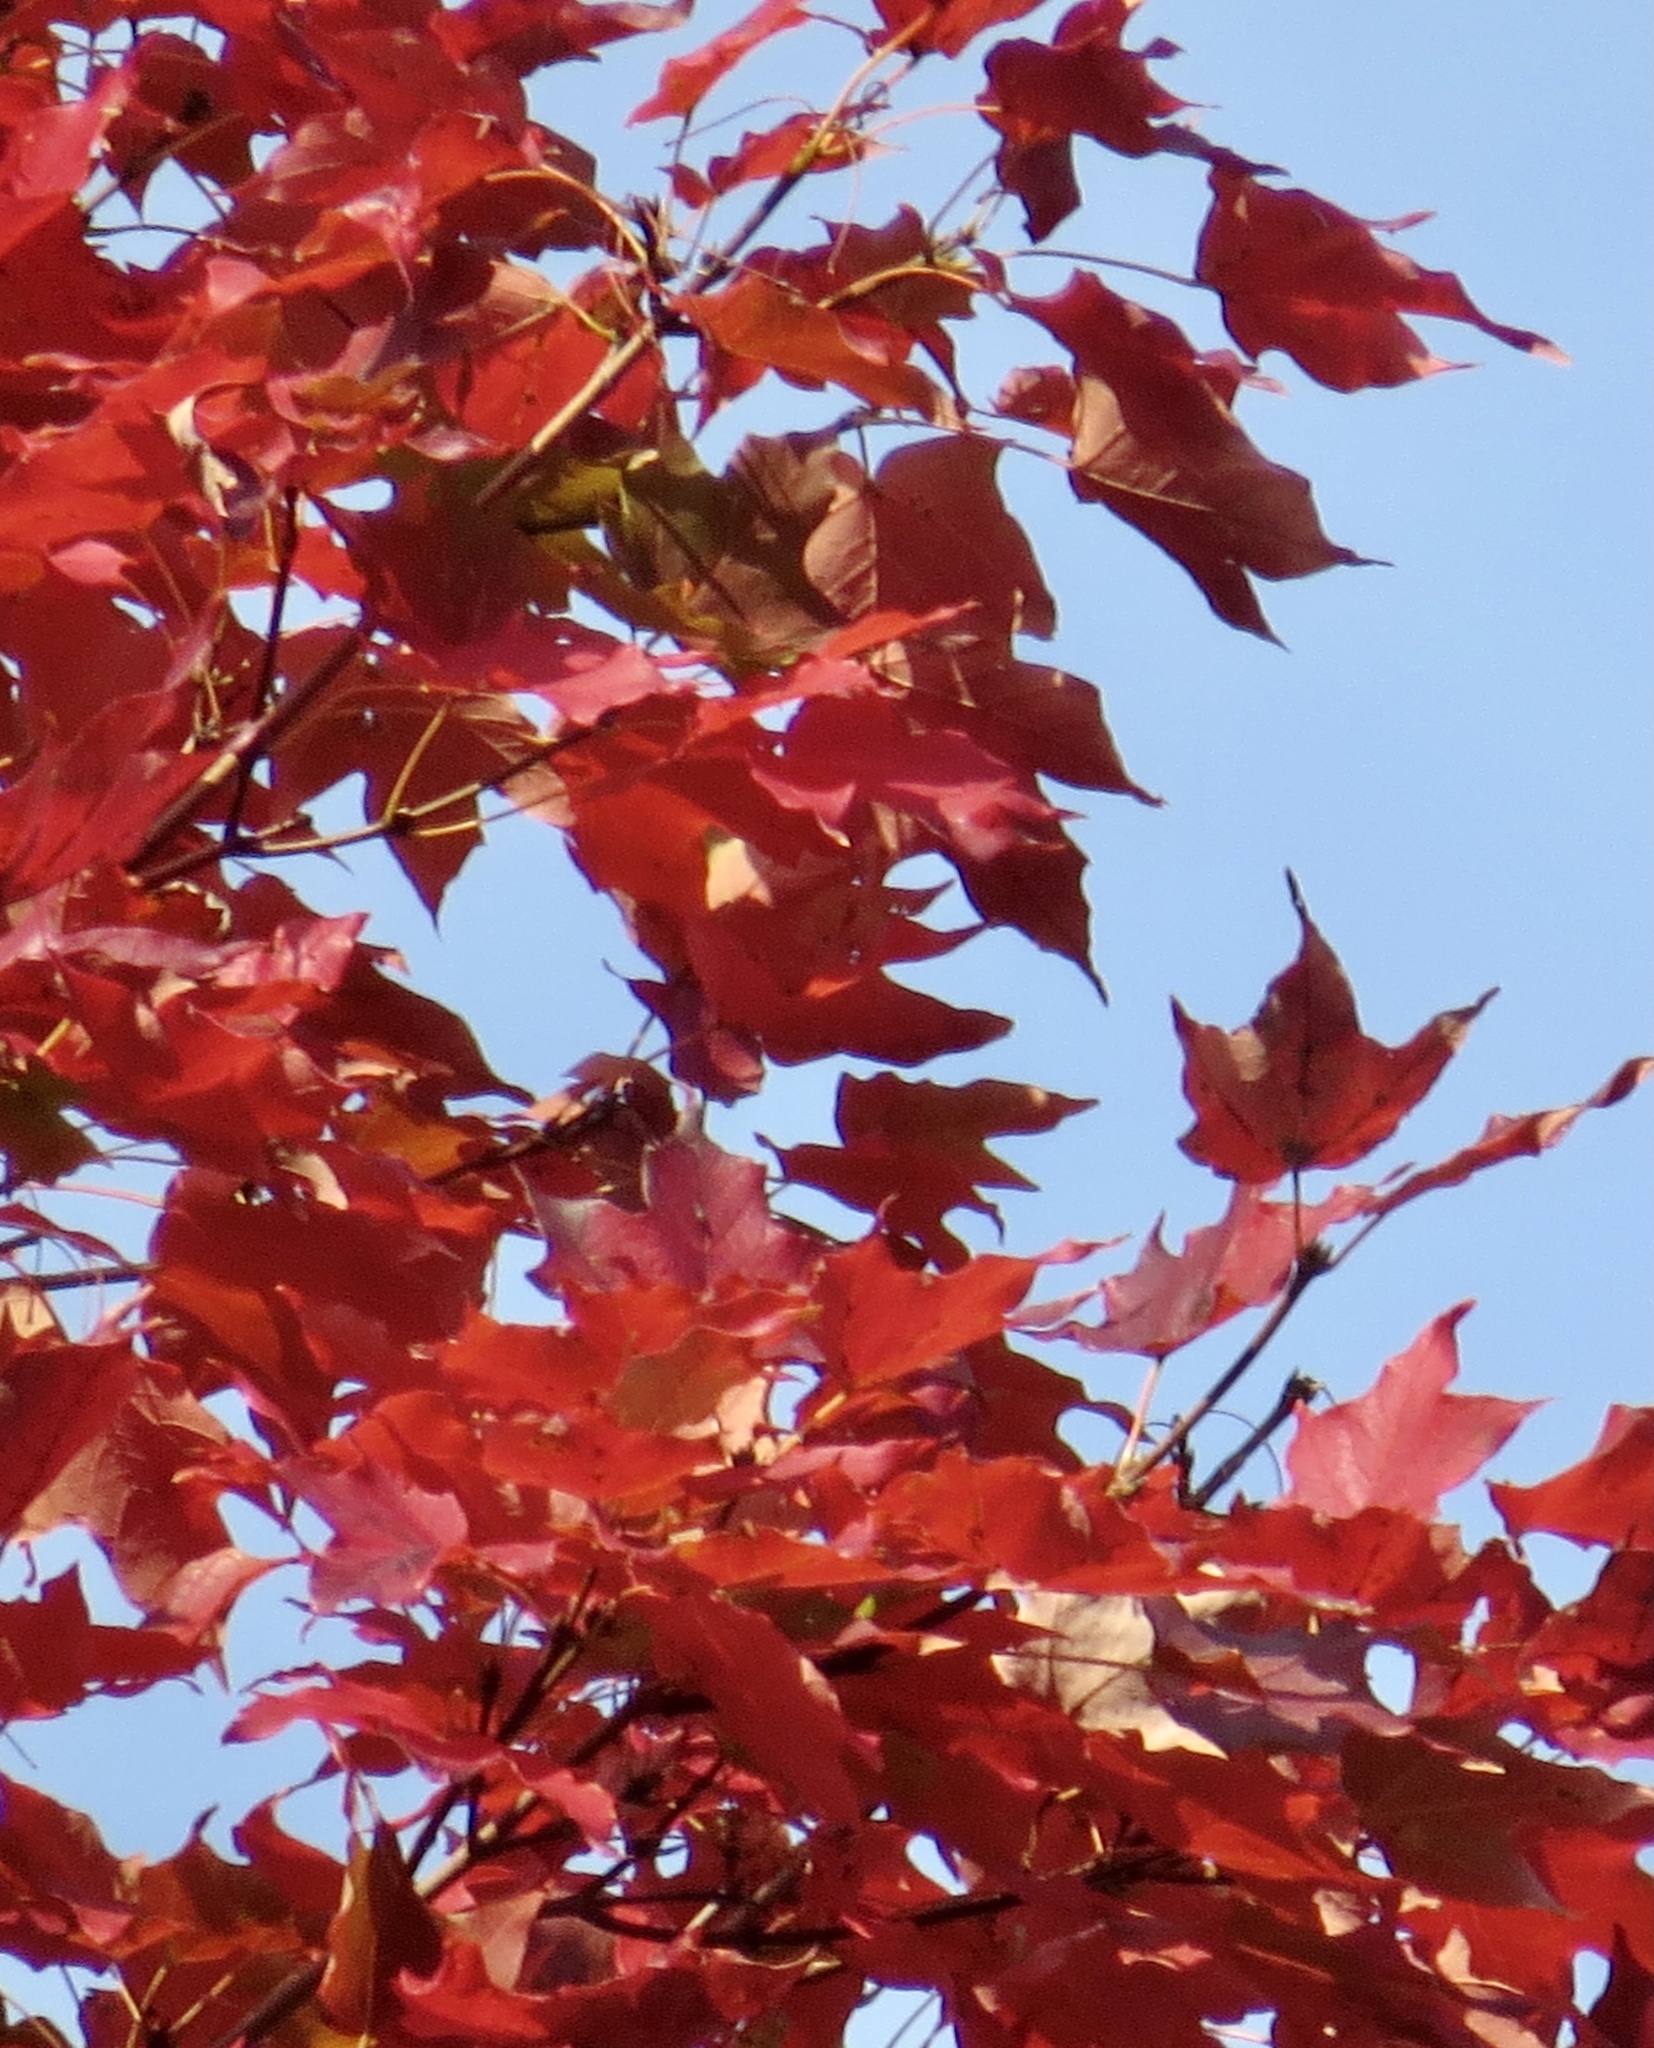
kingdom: Plantae
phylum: Tracheophyta
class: Magnoliopsida
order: Sapindales
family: Sapindaceae
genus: Acer
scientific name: Acer saccharum
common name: Sugar maple
